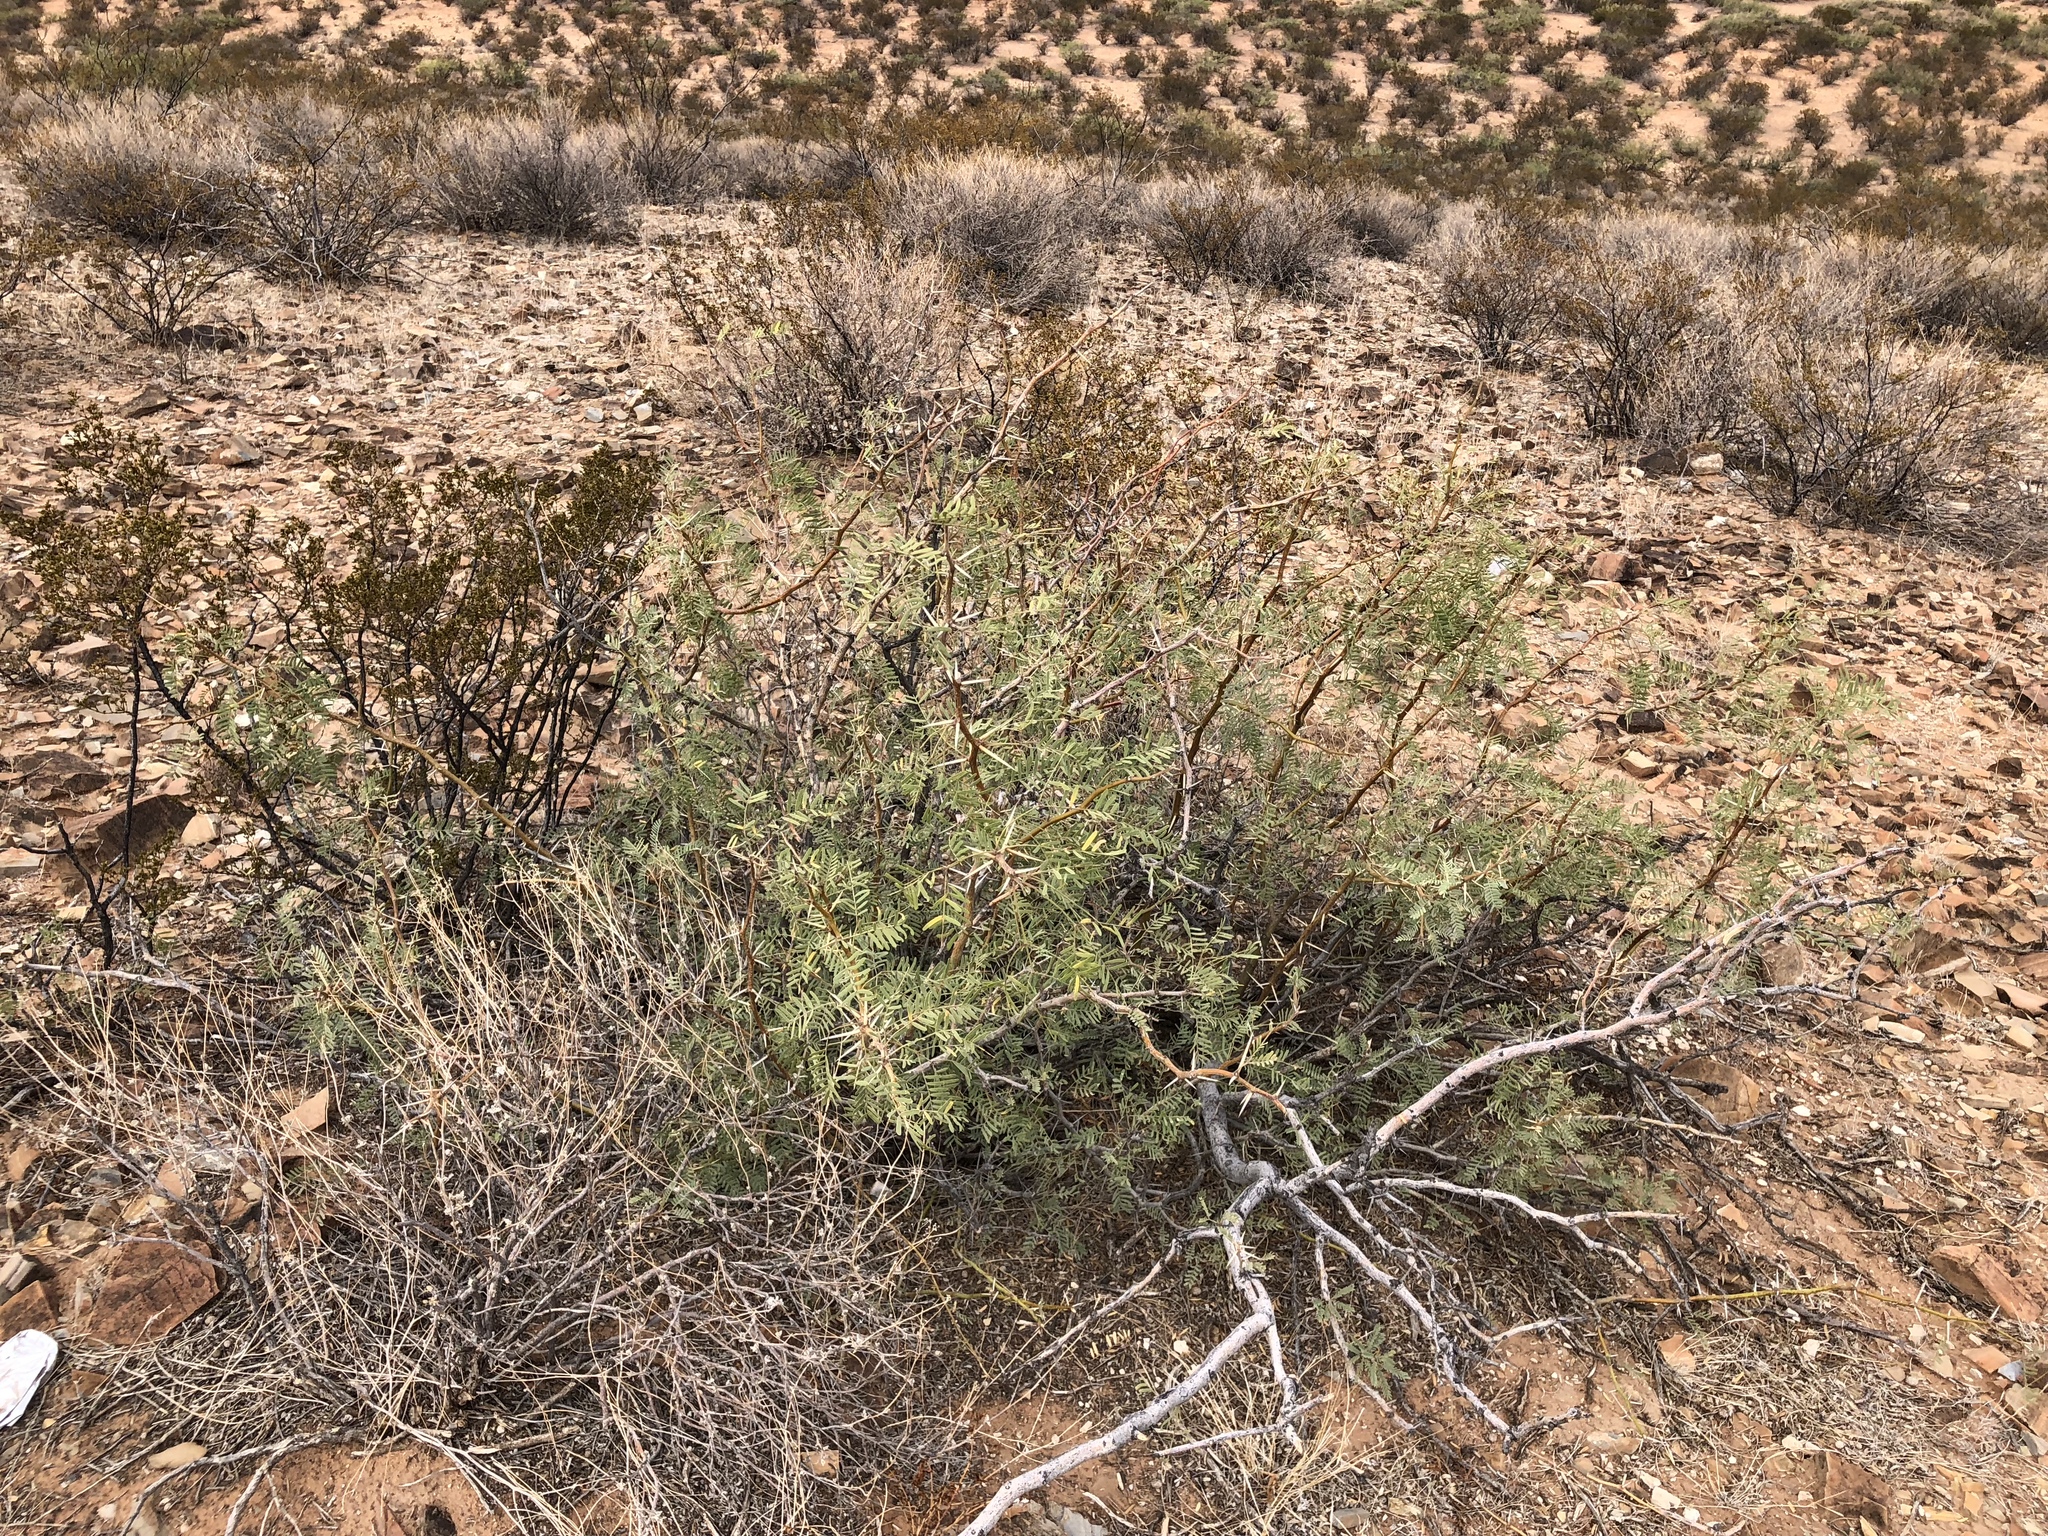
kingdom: Plantae
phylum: Tracheophyta
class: Magnoliopsida
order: Fabales
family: Fabaceae
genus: Prosopis
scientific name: Prosopis glandulosa
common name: Honey mesquite
